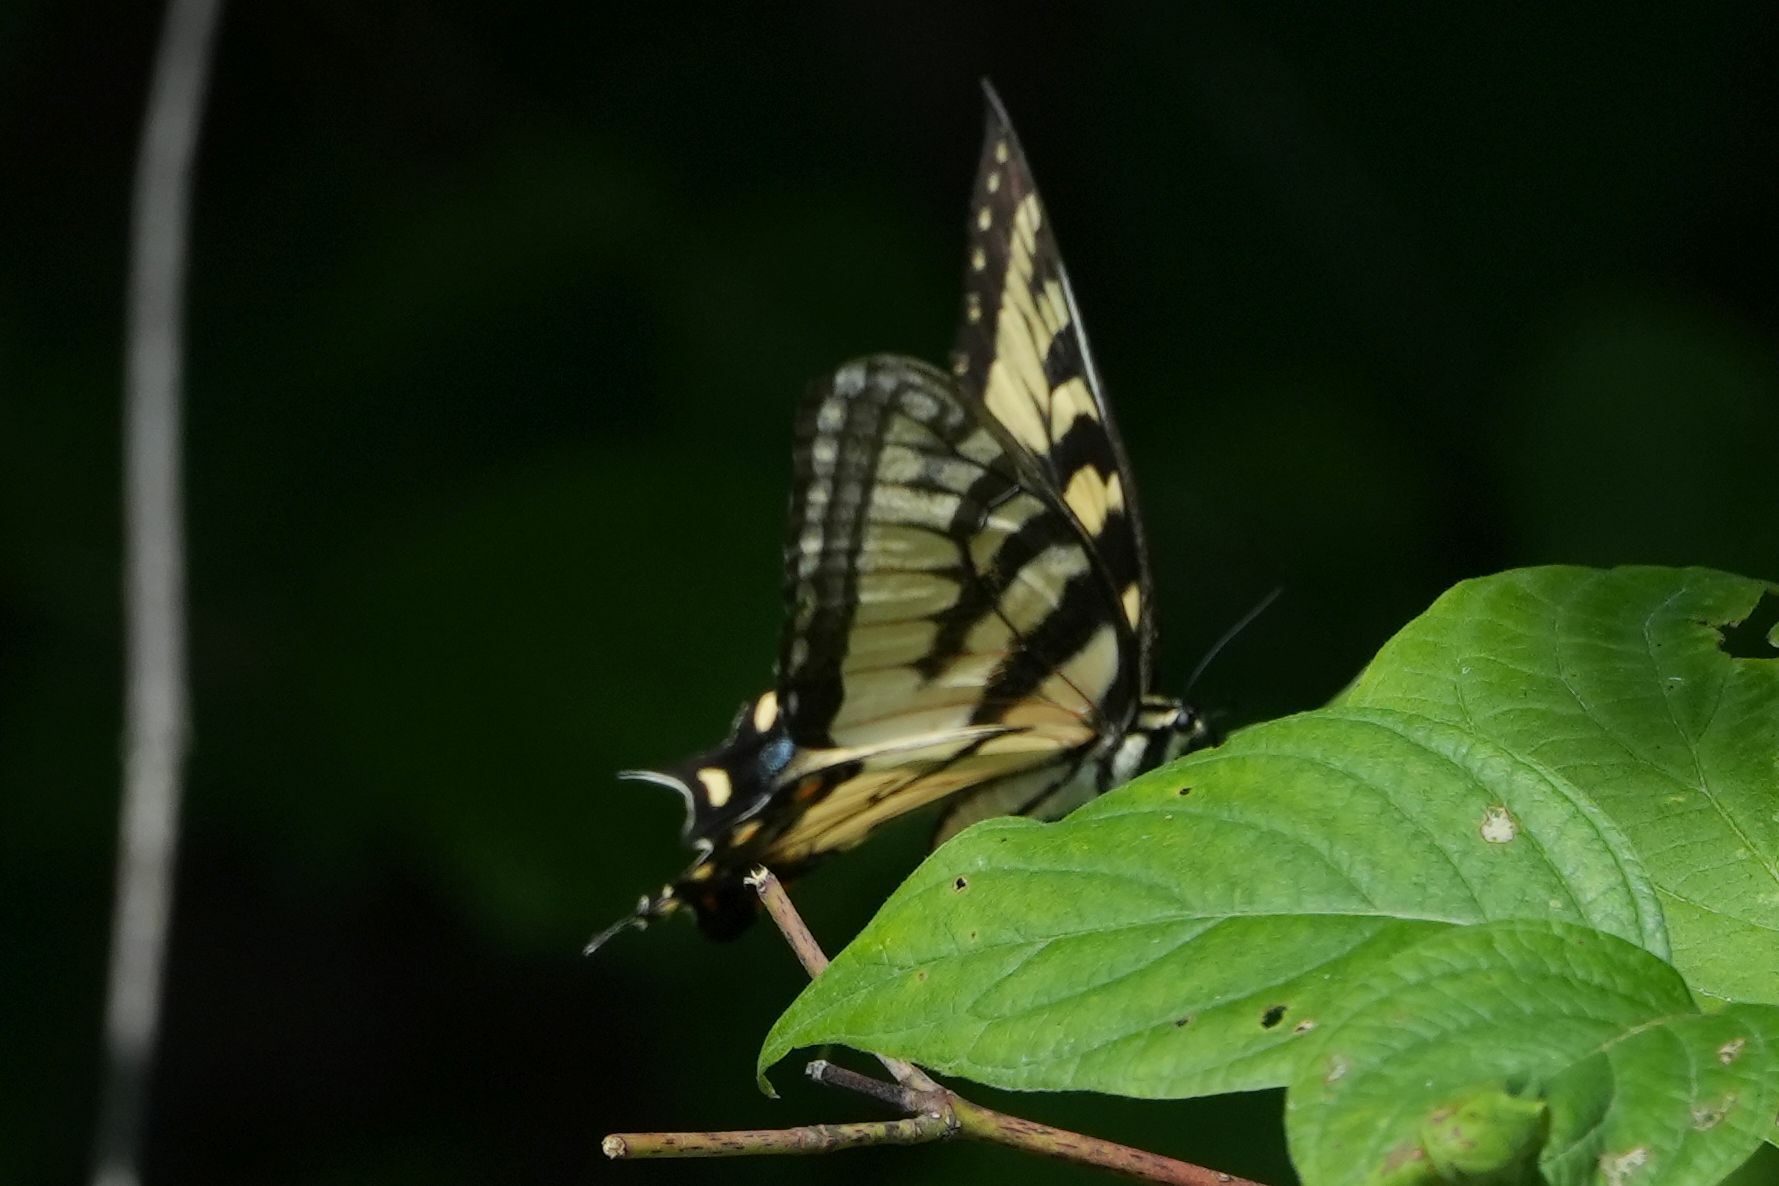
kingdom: Animalia
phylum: Arthropoda
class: Insecta
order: Lepidoptera
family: Papilionidae
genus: Papilio
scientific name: Papilio
